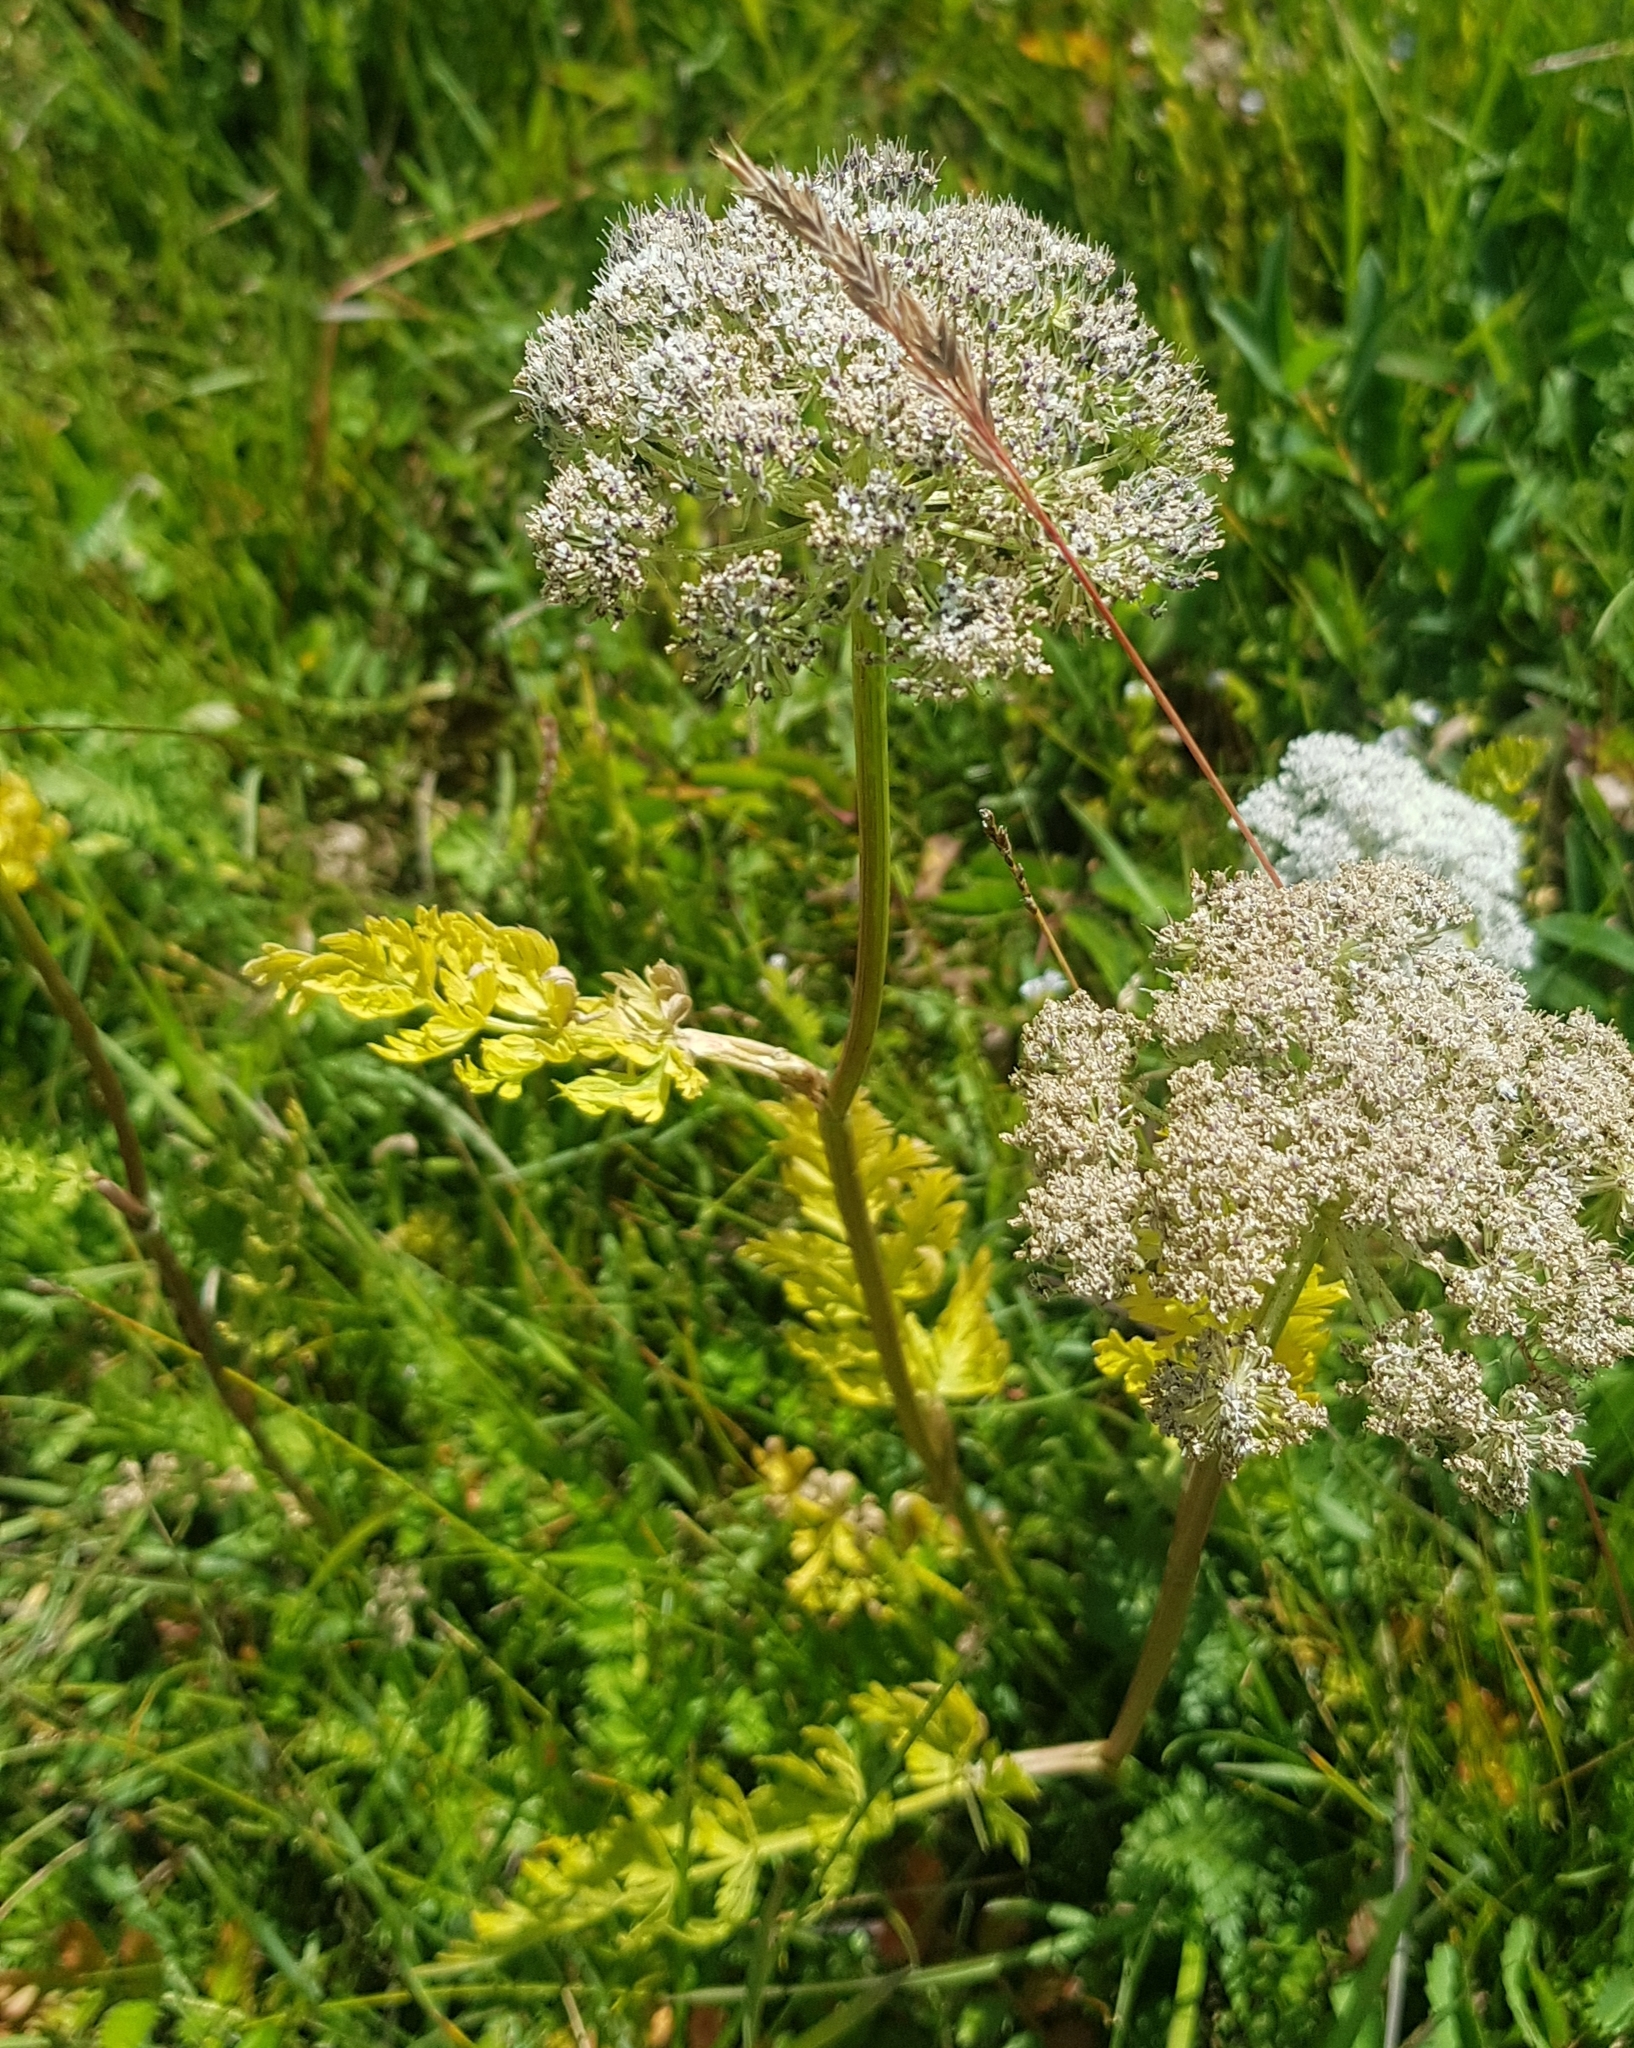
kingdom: Plantae
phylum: Tracheophyta
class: Magnoliopsida
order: Apiales
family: Apiaceae
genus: Seseli
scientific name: Seseli condensatum
